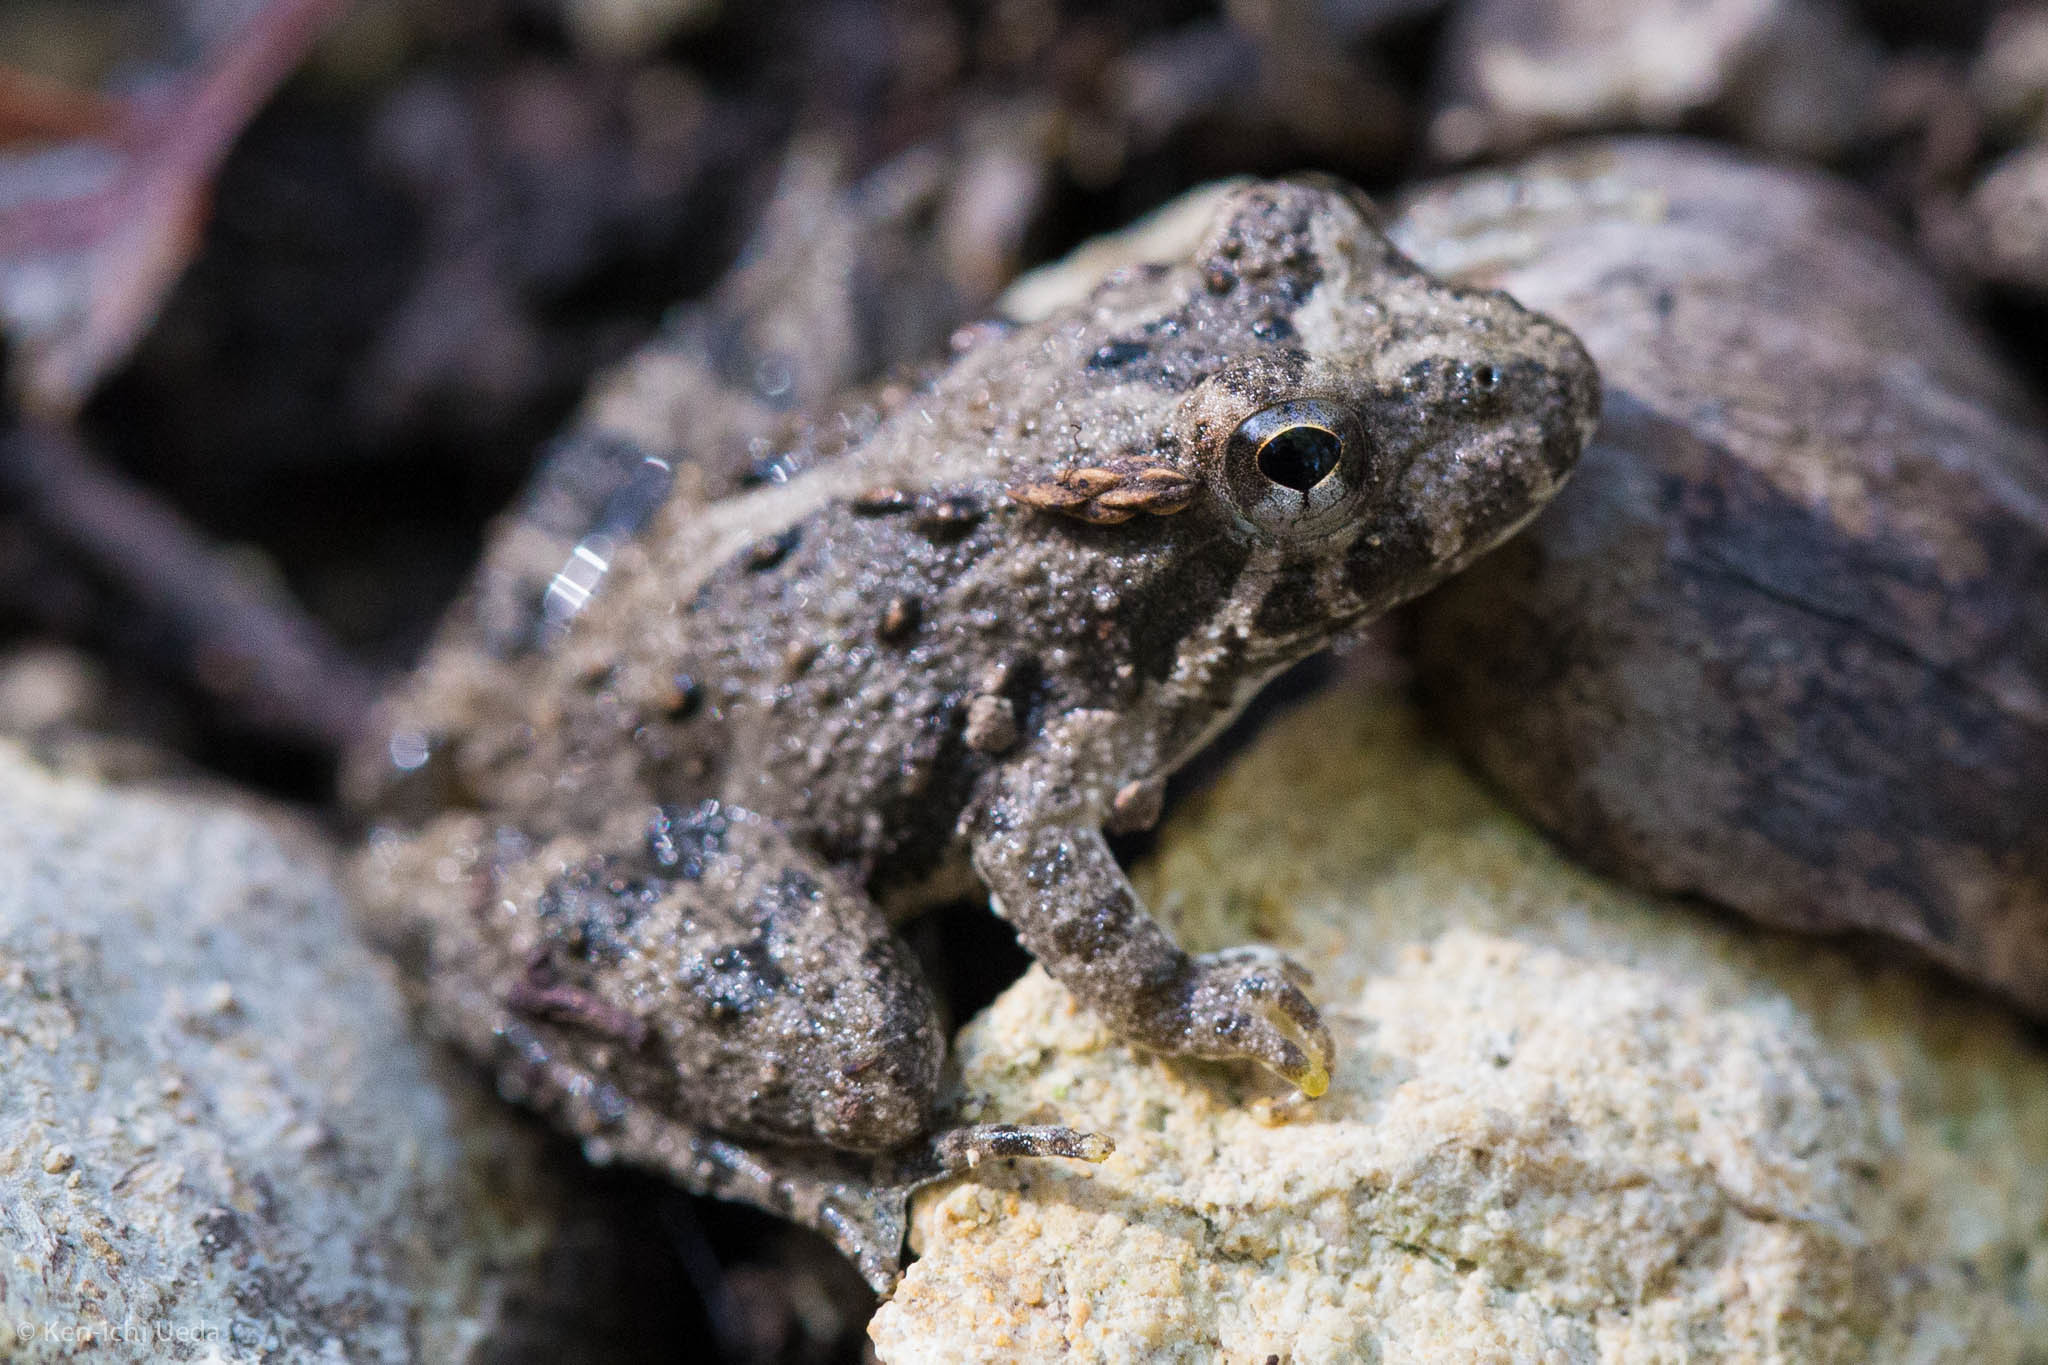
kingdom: Animalia
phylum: Chordata
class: Amphibia
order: Anura
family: Hylidae
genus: Acris
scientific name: Acris blanchardi
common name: Blanchard's cricket frog
